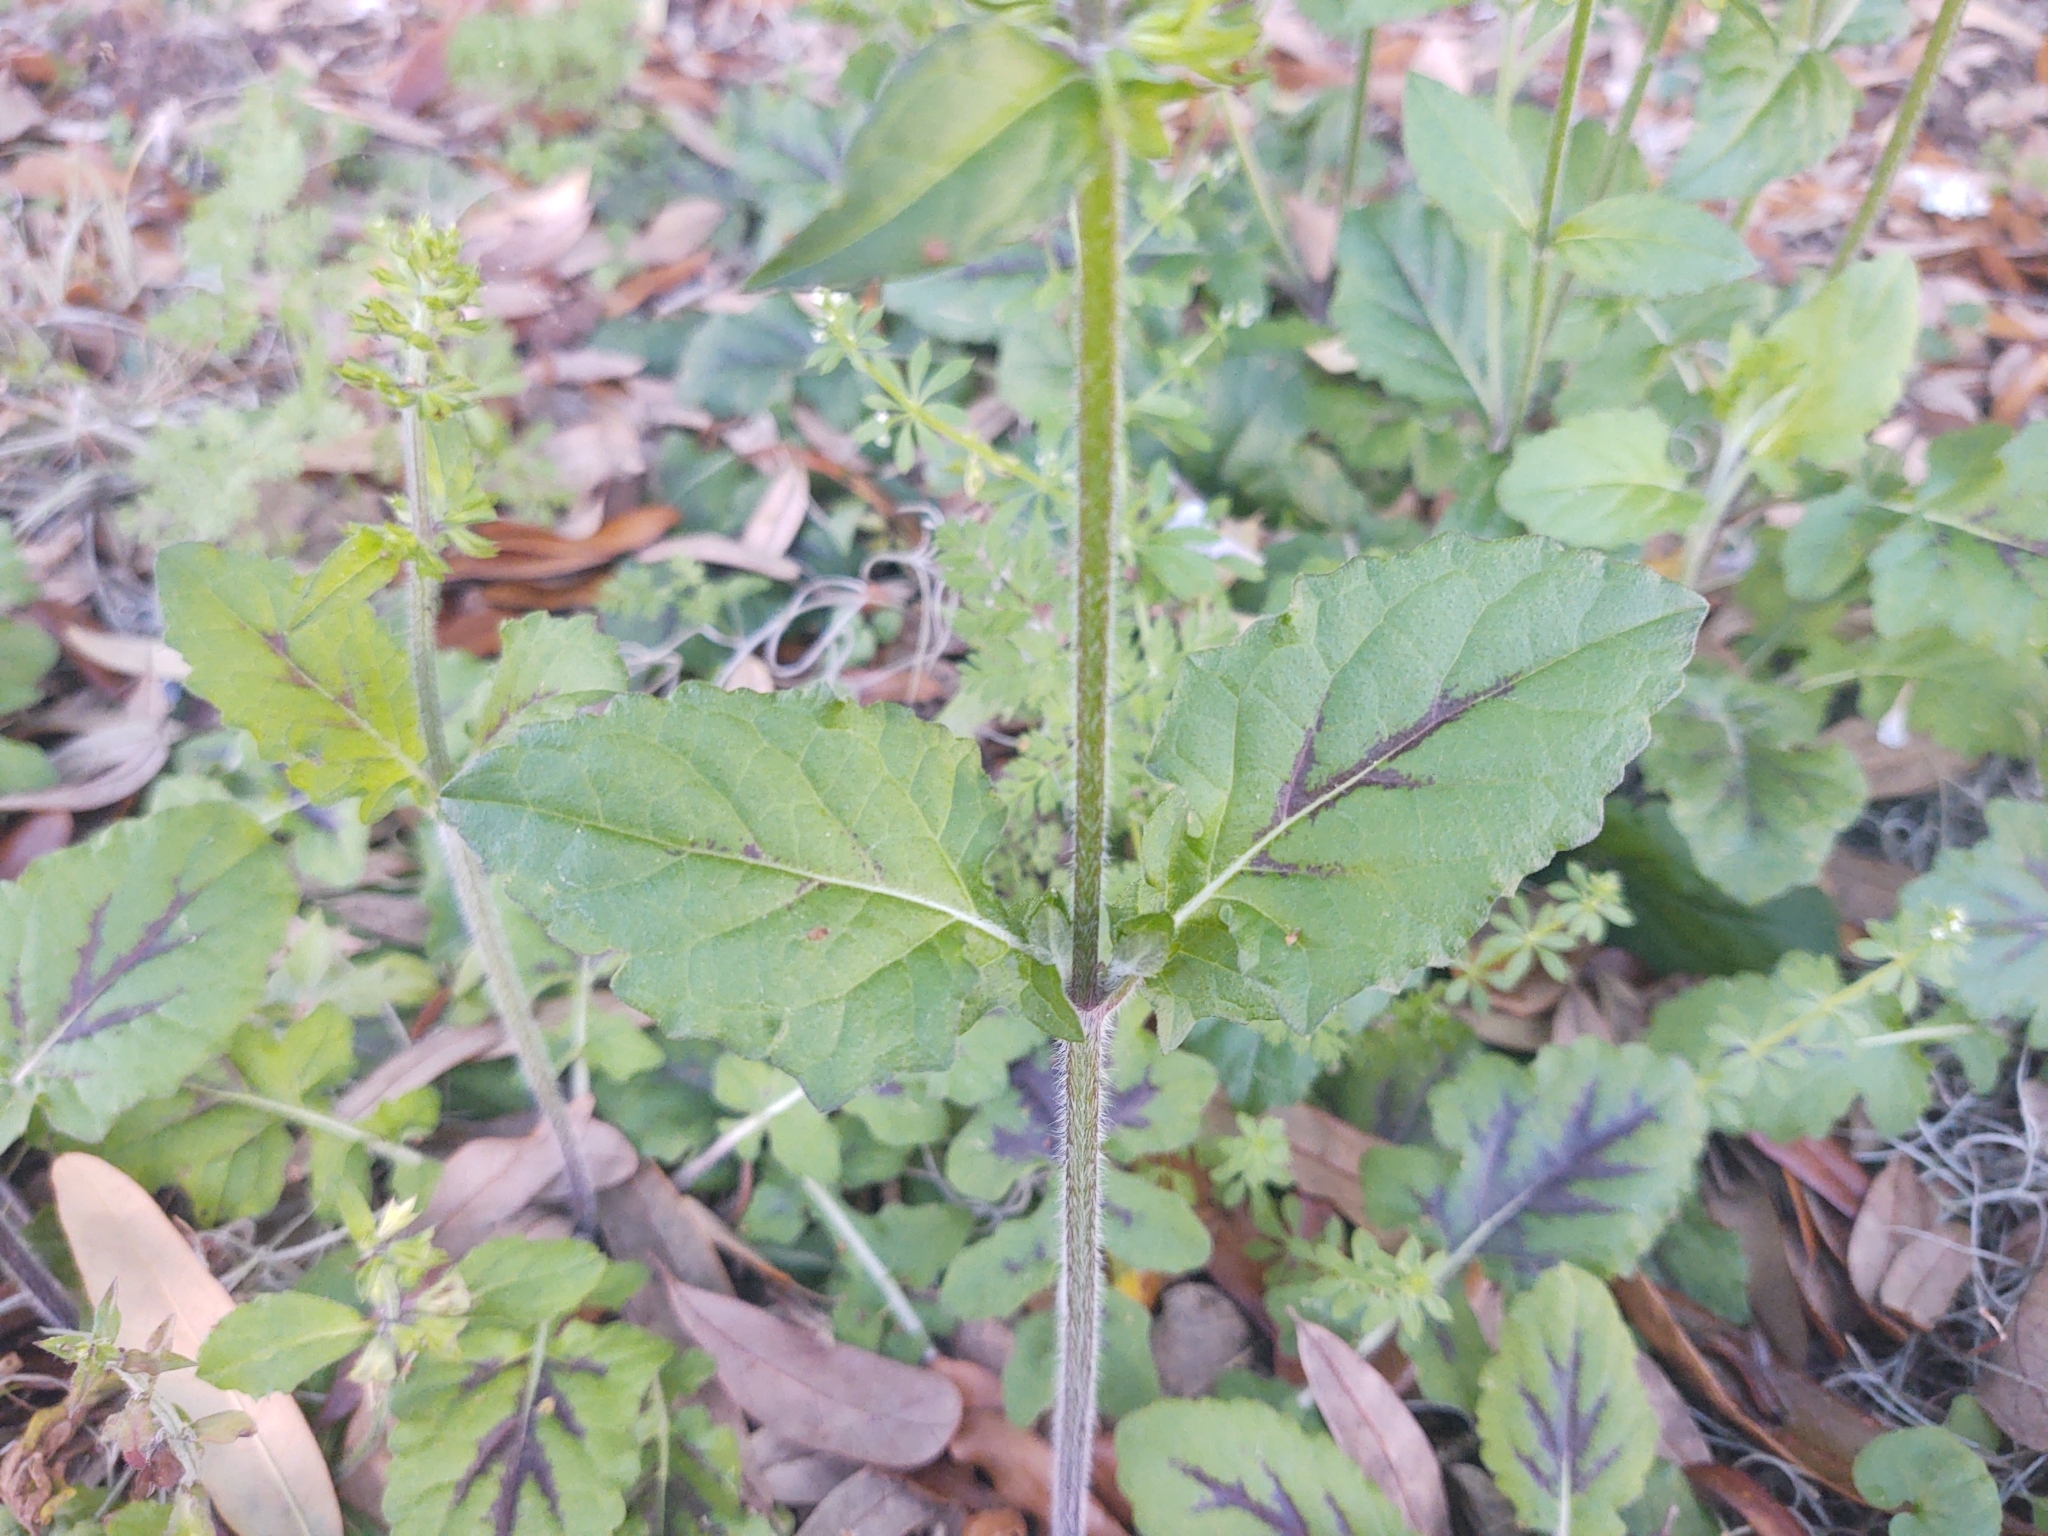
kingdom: Plantae
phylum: Tracheophyta
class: Magnoliopsida
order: Lamiales
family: Lamiaceae
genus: Salvia
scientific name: Salvia lyrata
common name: Cancerweed
